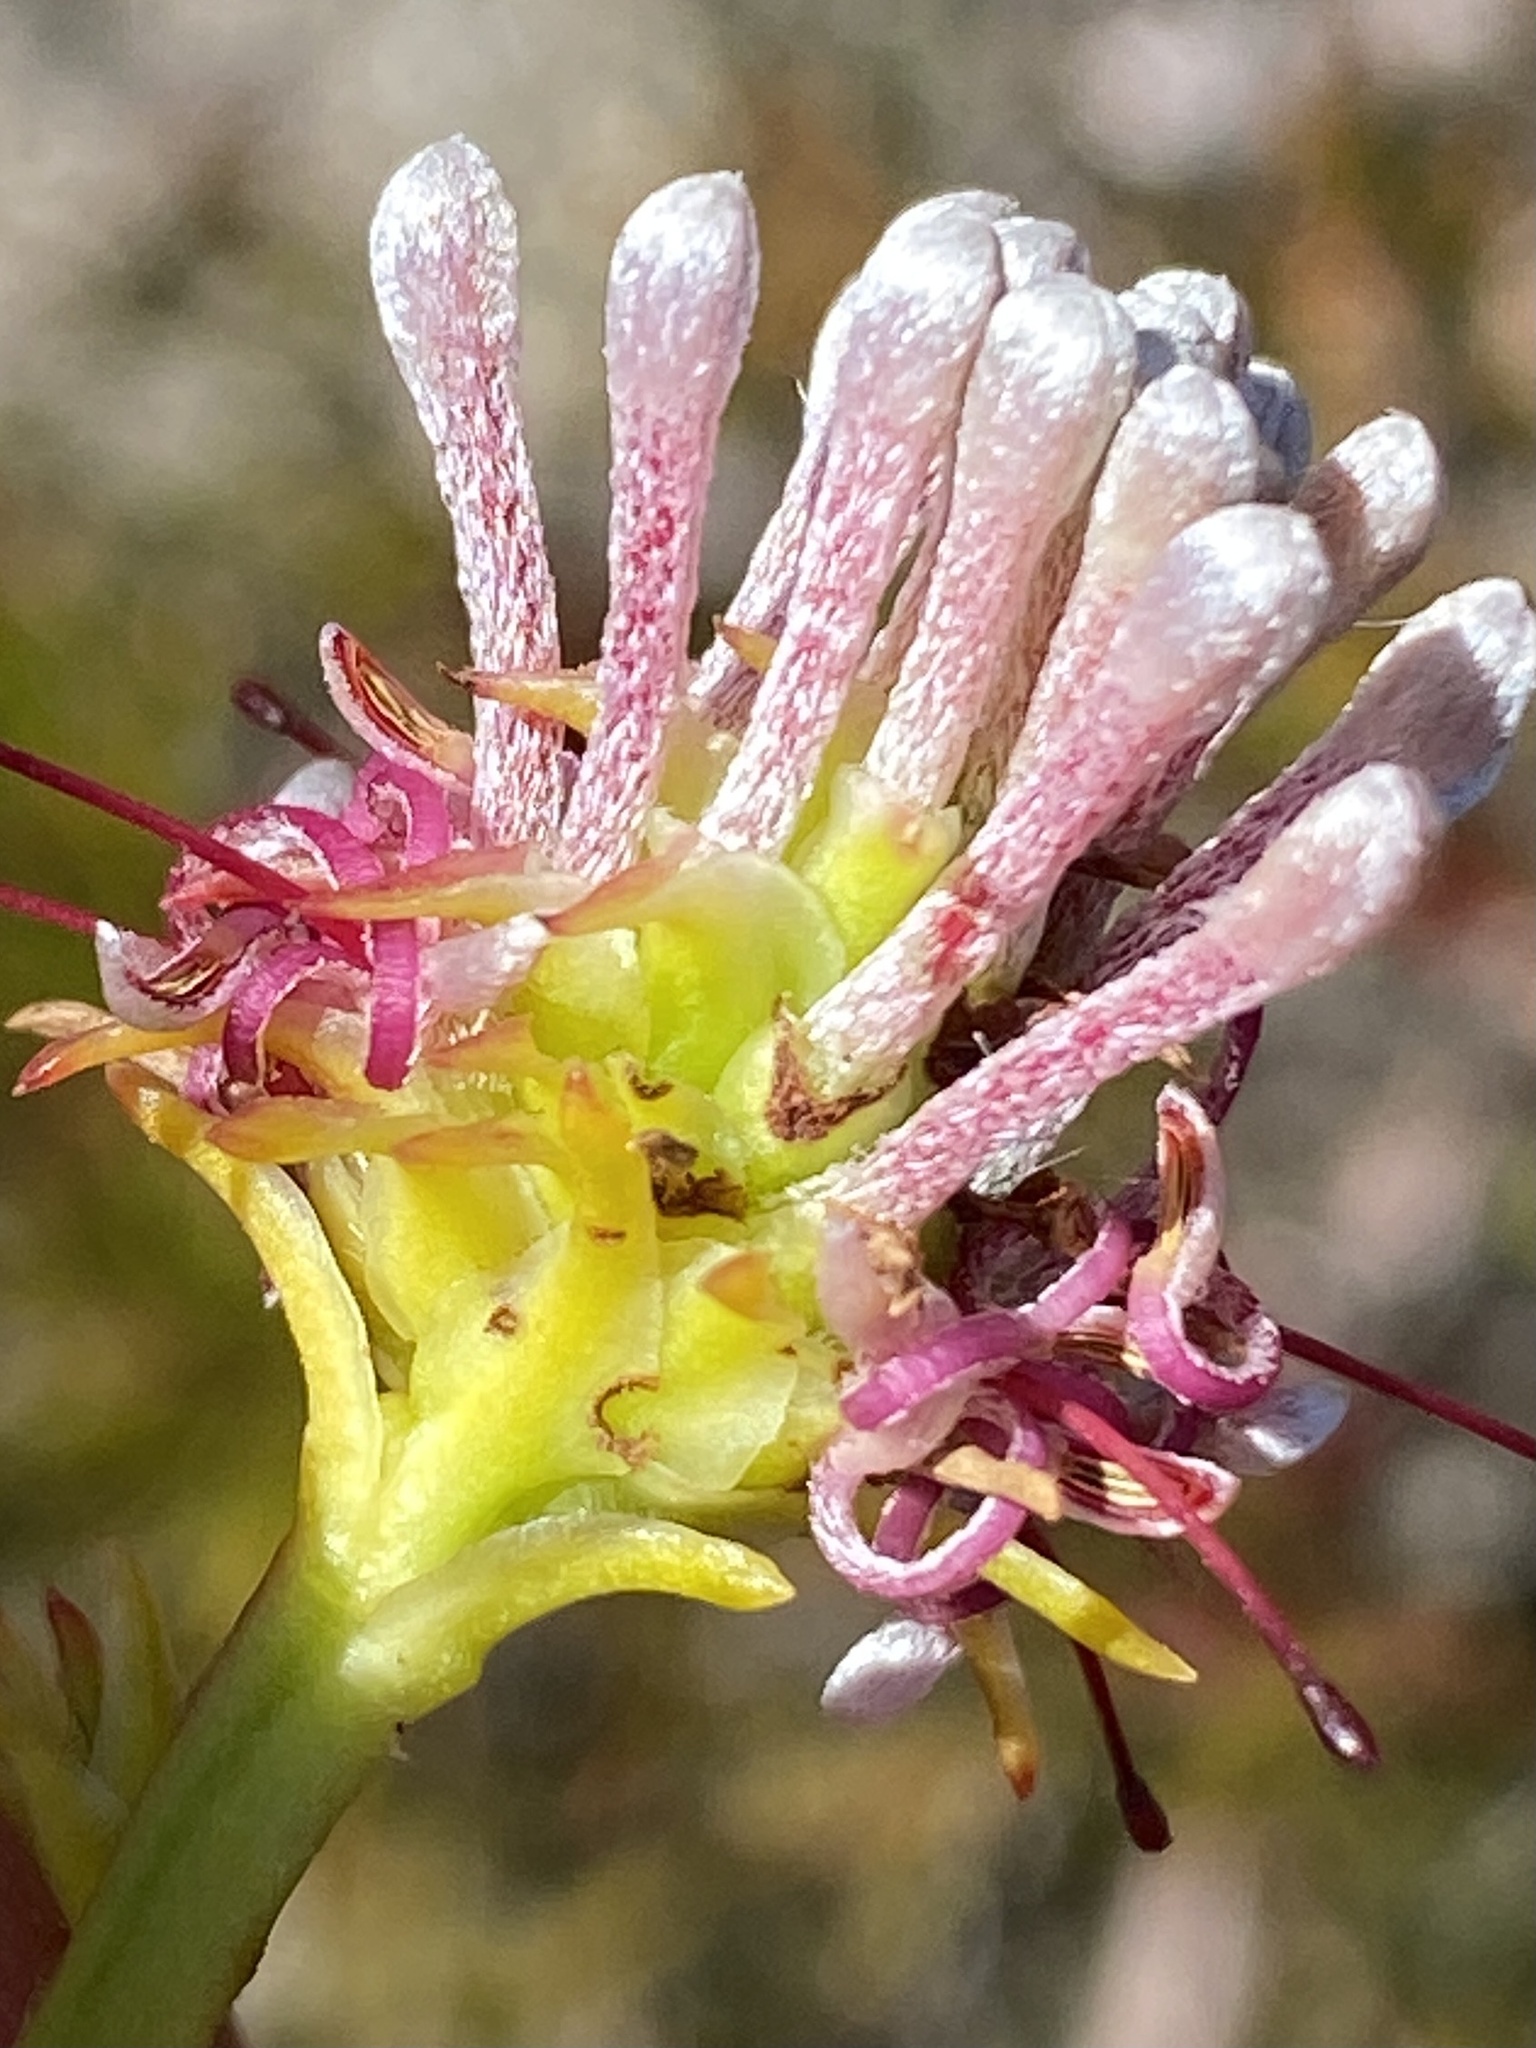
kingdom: Plantae
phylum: Tracheophyta
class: Magnoliopsida
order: Proteales
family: Proteaceae
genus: Serruria
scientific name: Serruria elongata
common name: Long-stalk spiderhead
